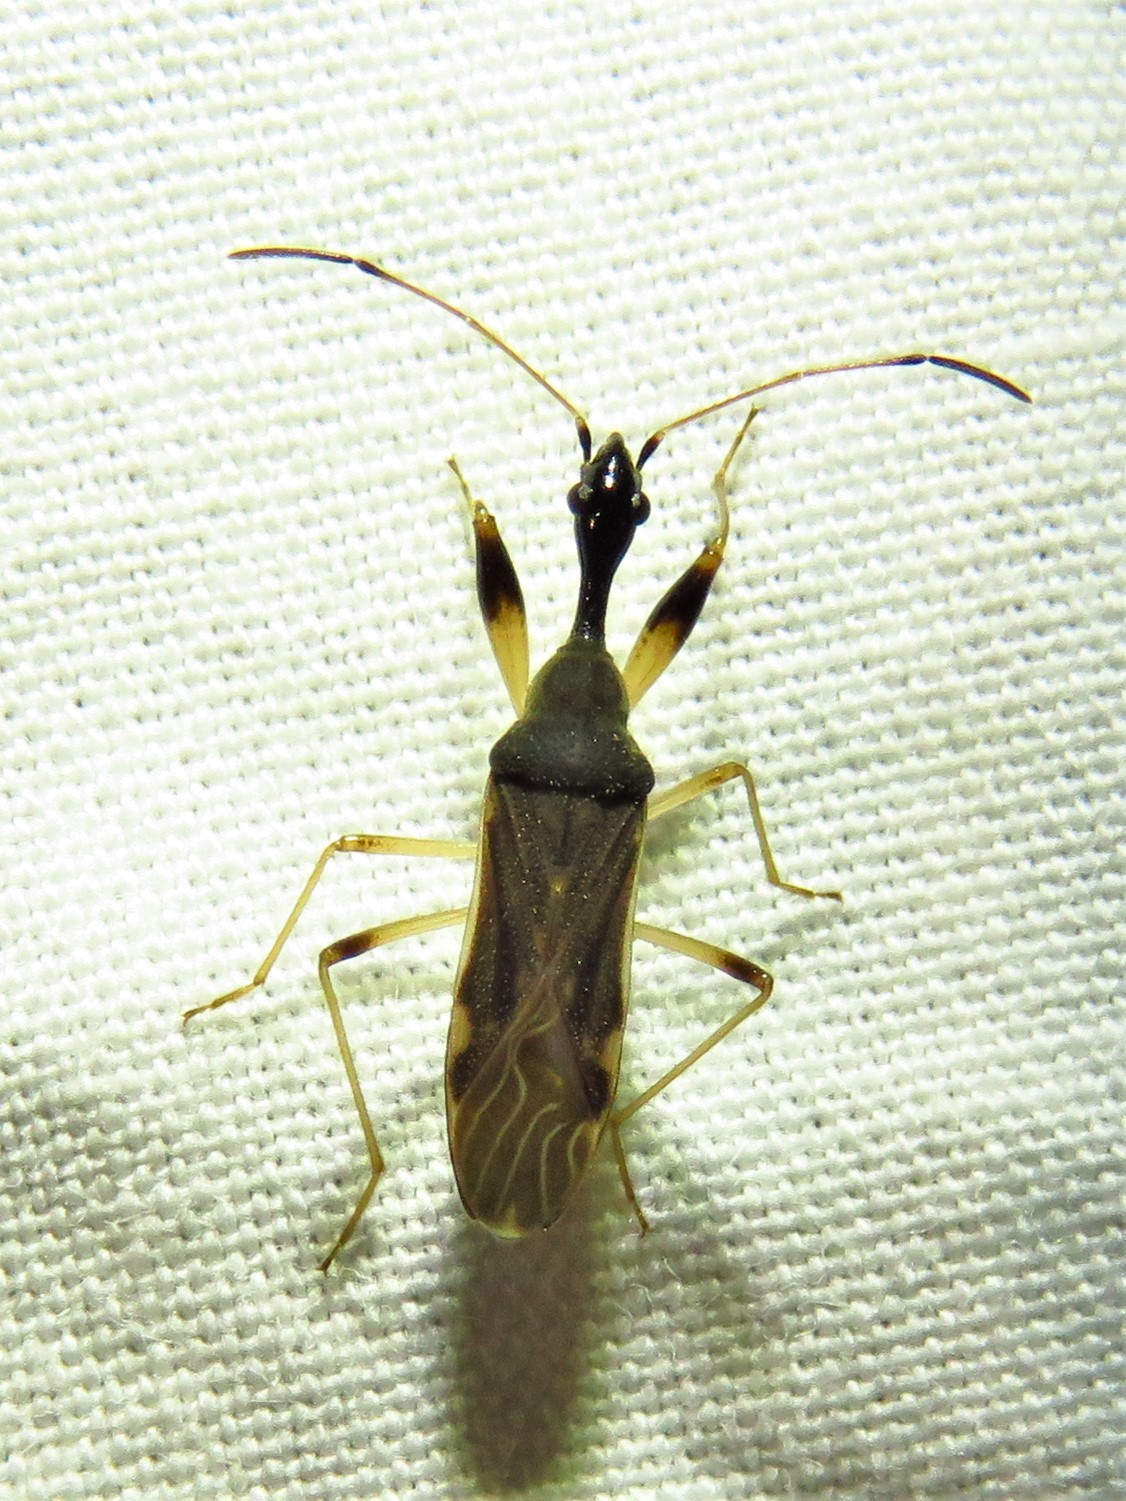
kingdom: Animalia
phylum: Arthropoda
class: Insecta
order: Hemiptera
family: Rhyparochromidae
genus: Myodocha
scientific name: Myodocha serripes
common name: Long-necked seed bug
